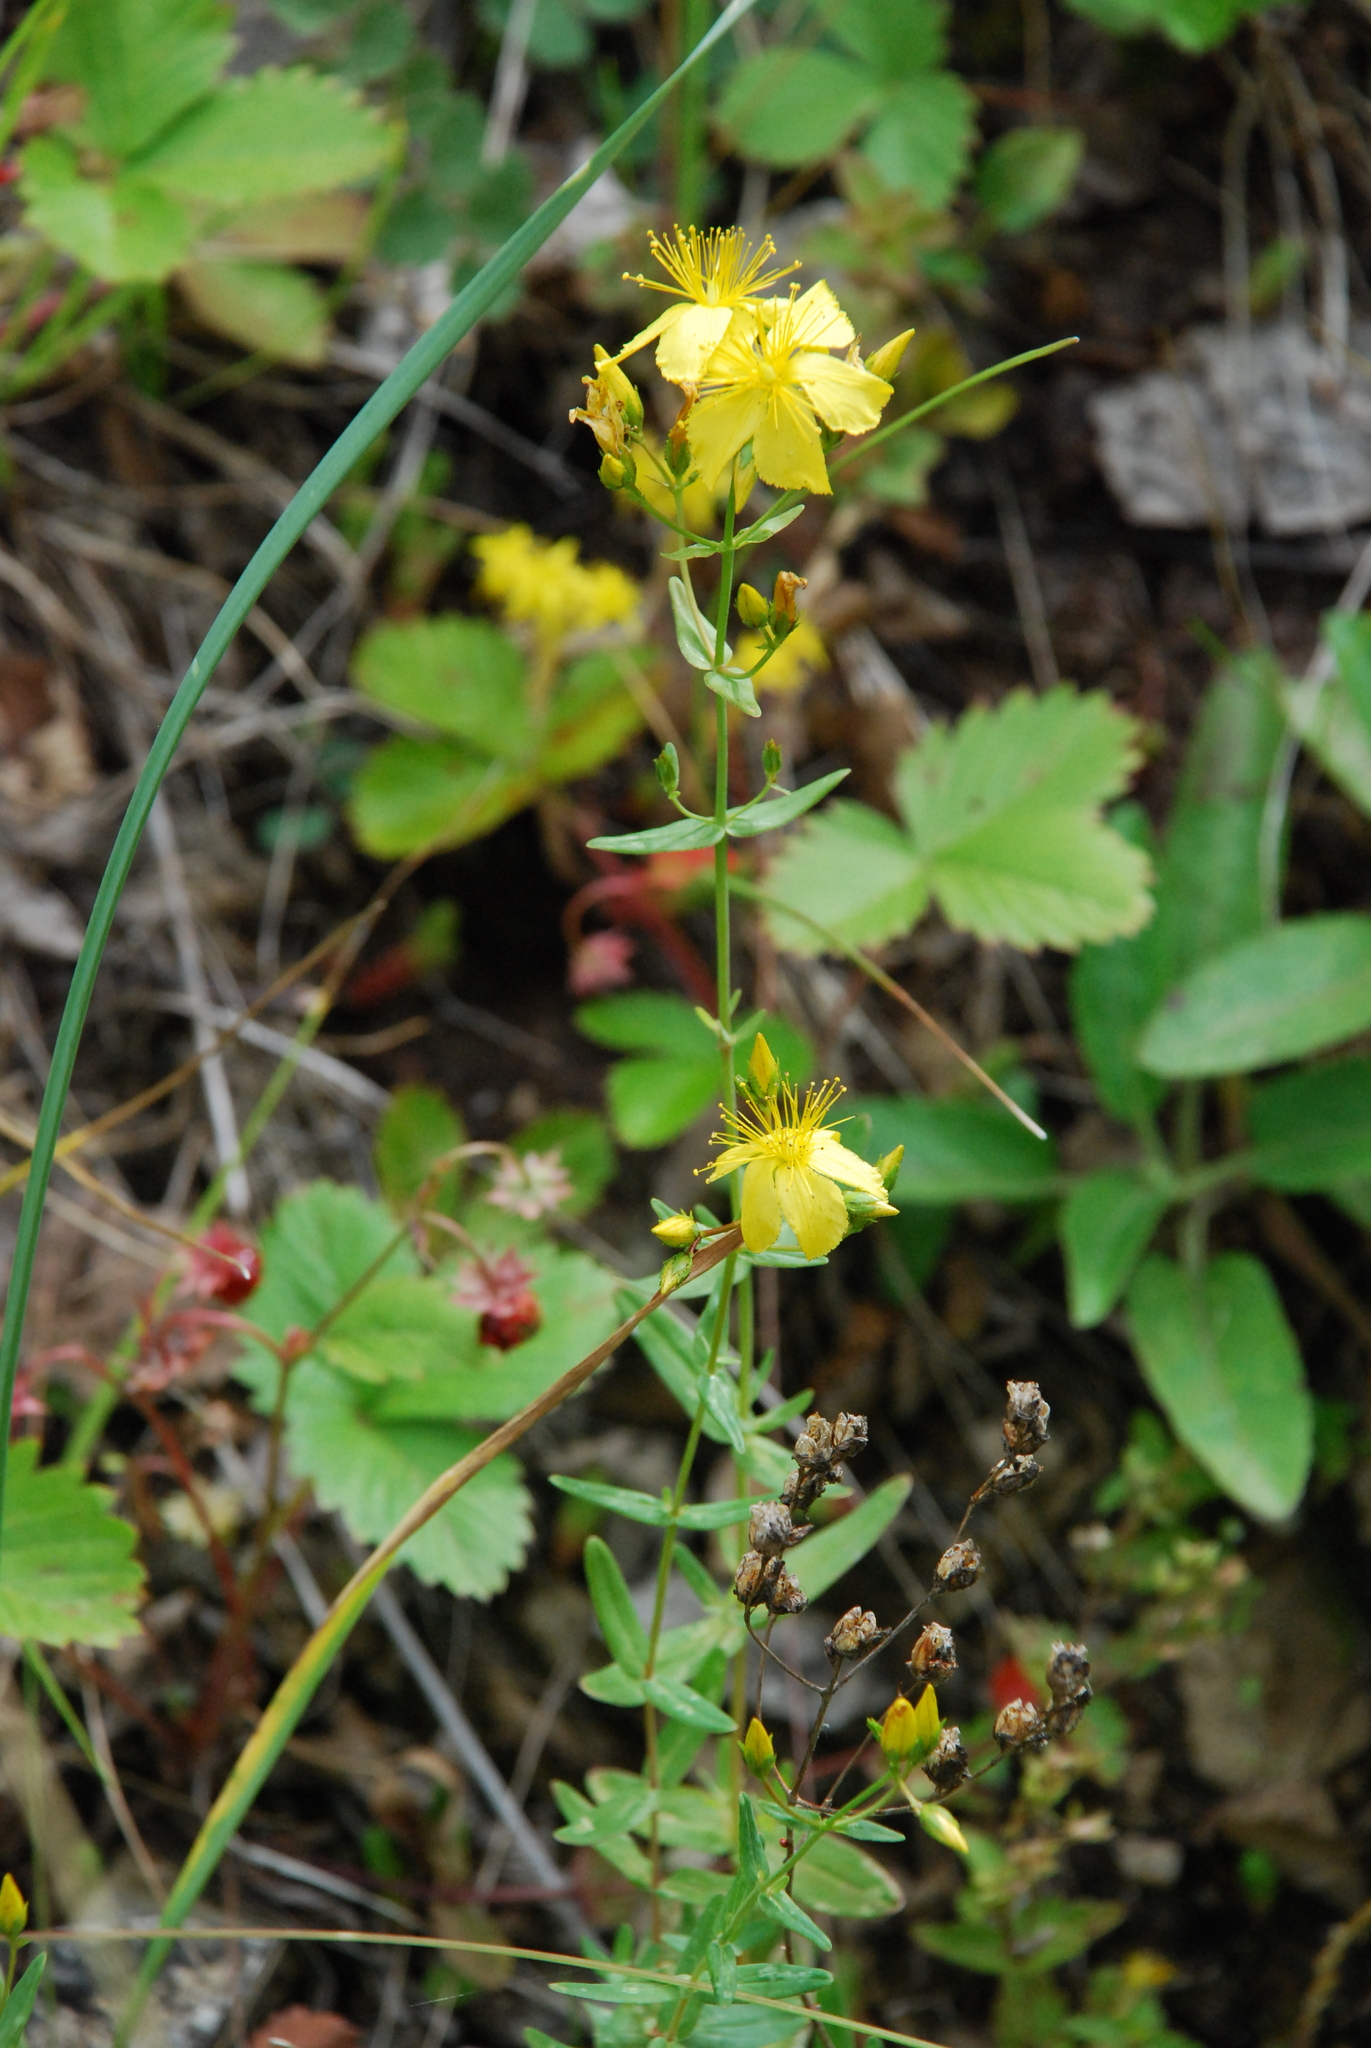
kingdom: Plantae
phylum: Tracheophyta
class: Magnoliopsida
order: Malpighiales
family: Hypericaceae
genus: Hypericum
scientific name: Hypericum elegans
